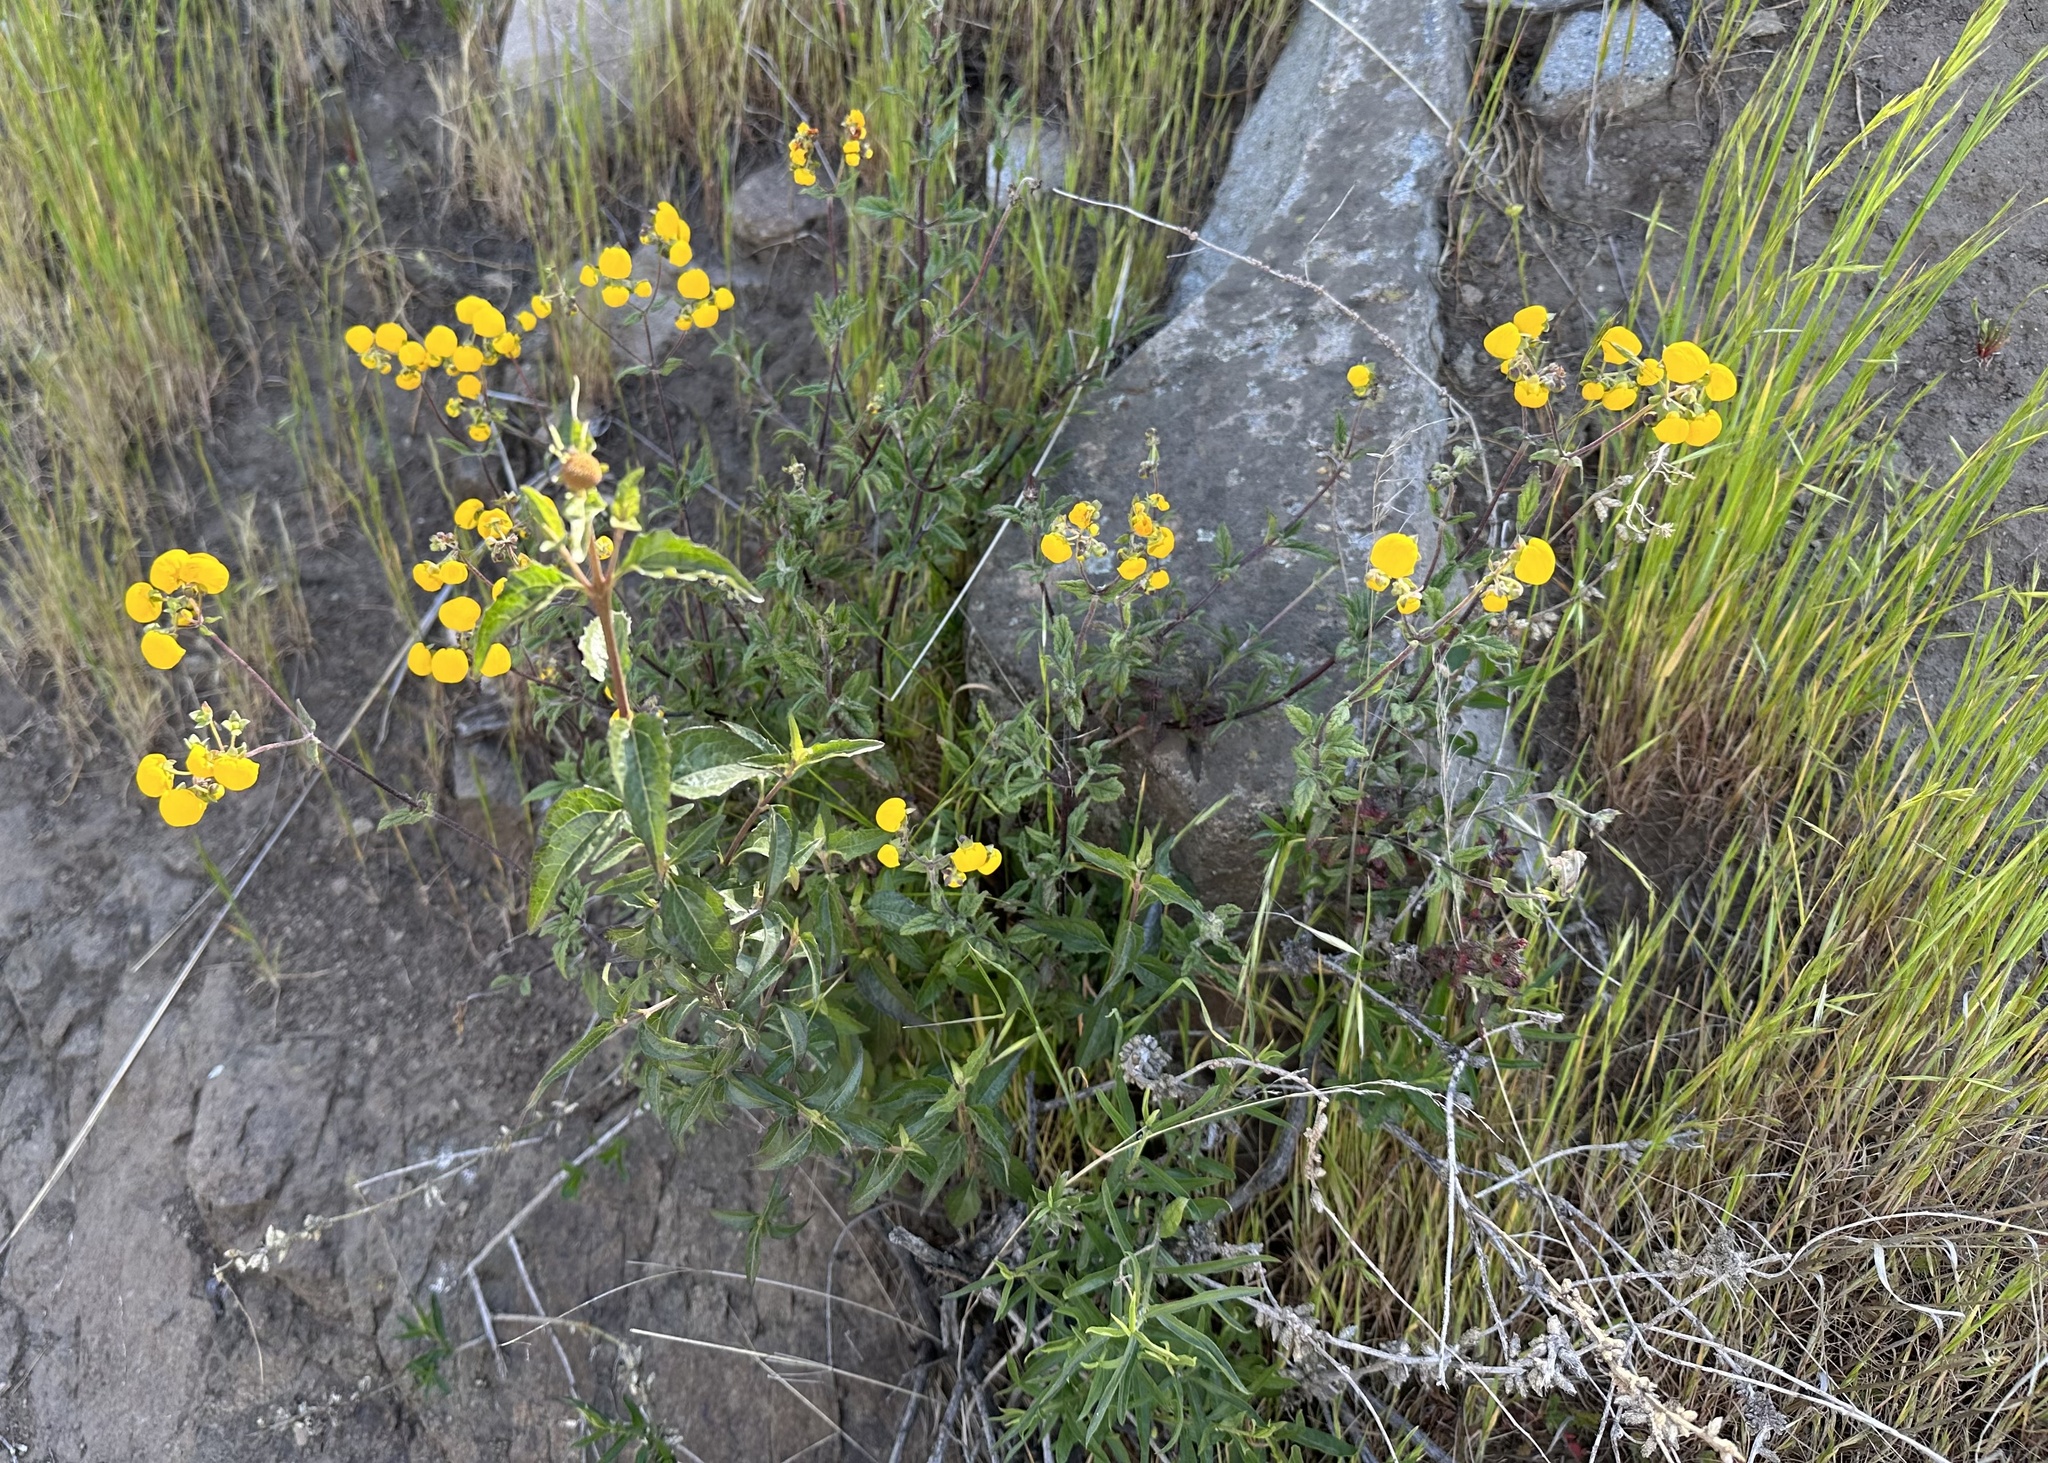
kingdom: Plantae
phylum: Tracheophyta
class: Magnoliopsida
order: Lamiales
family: Calceolariaceae
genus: Calceolaria
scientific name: Calceolaria ascendens
